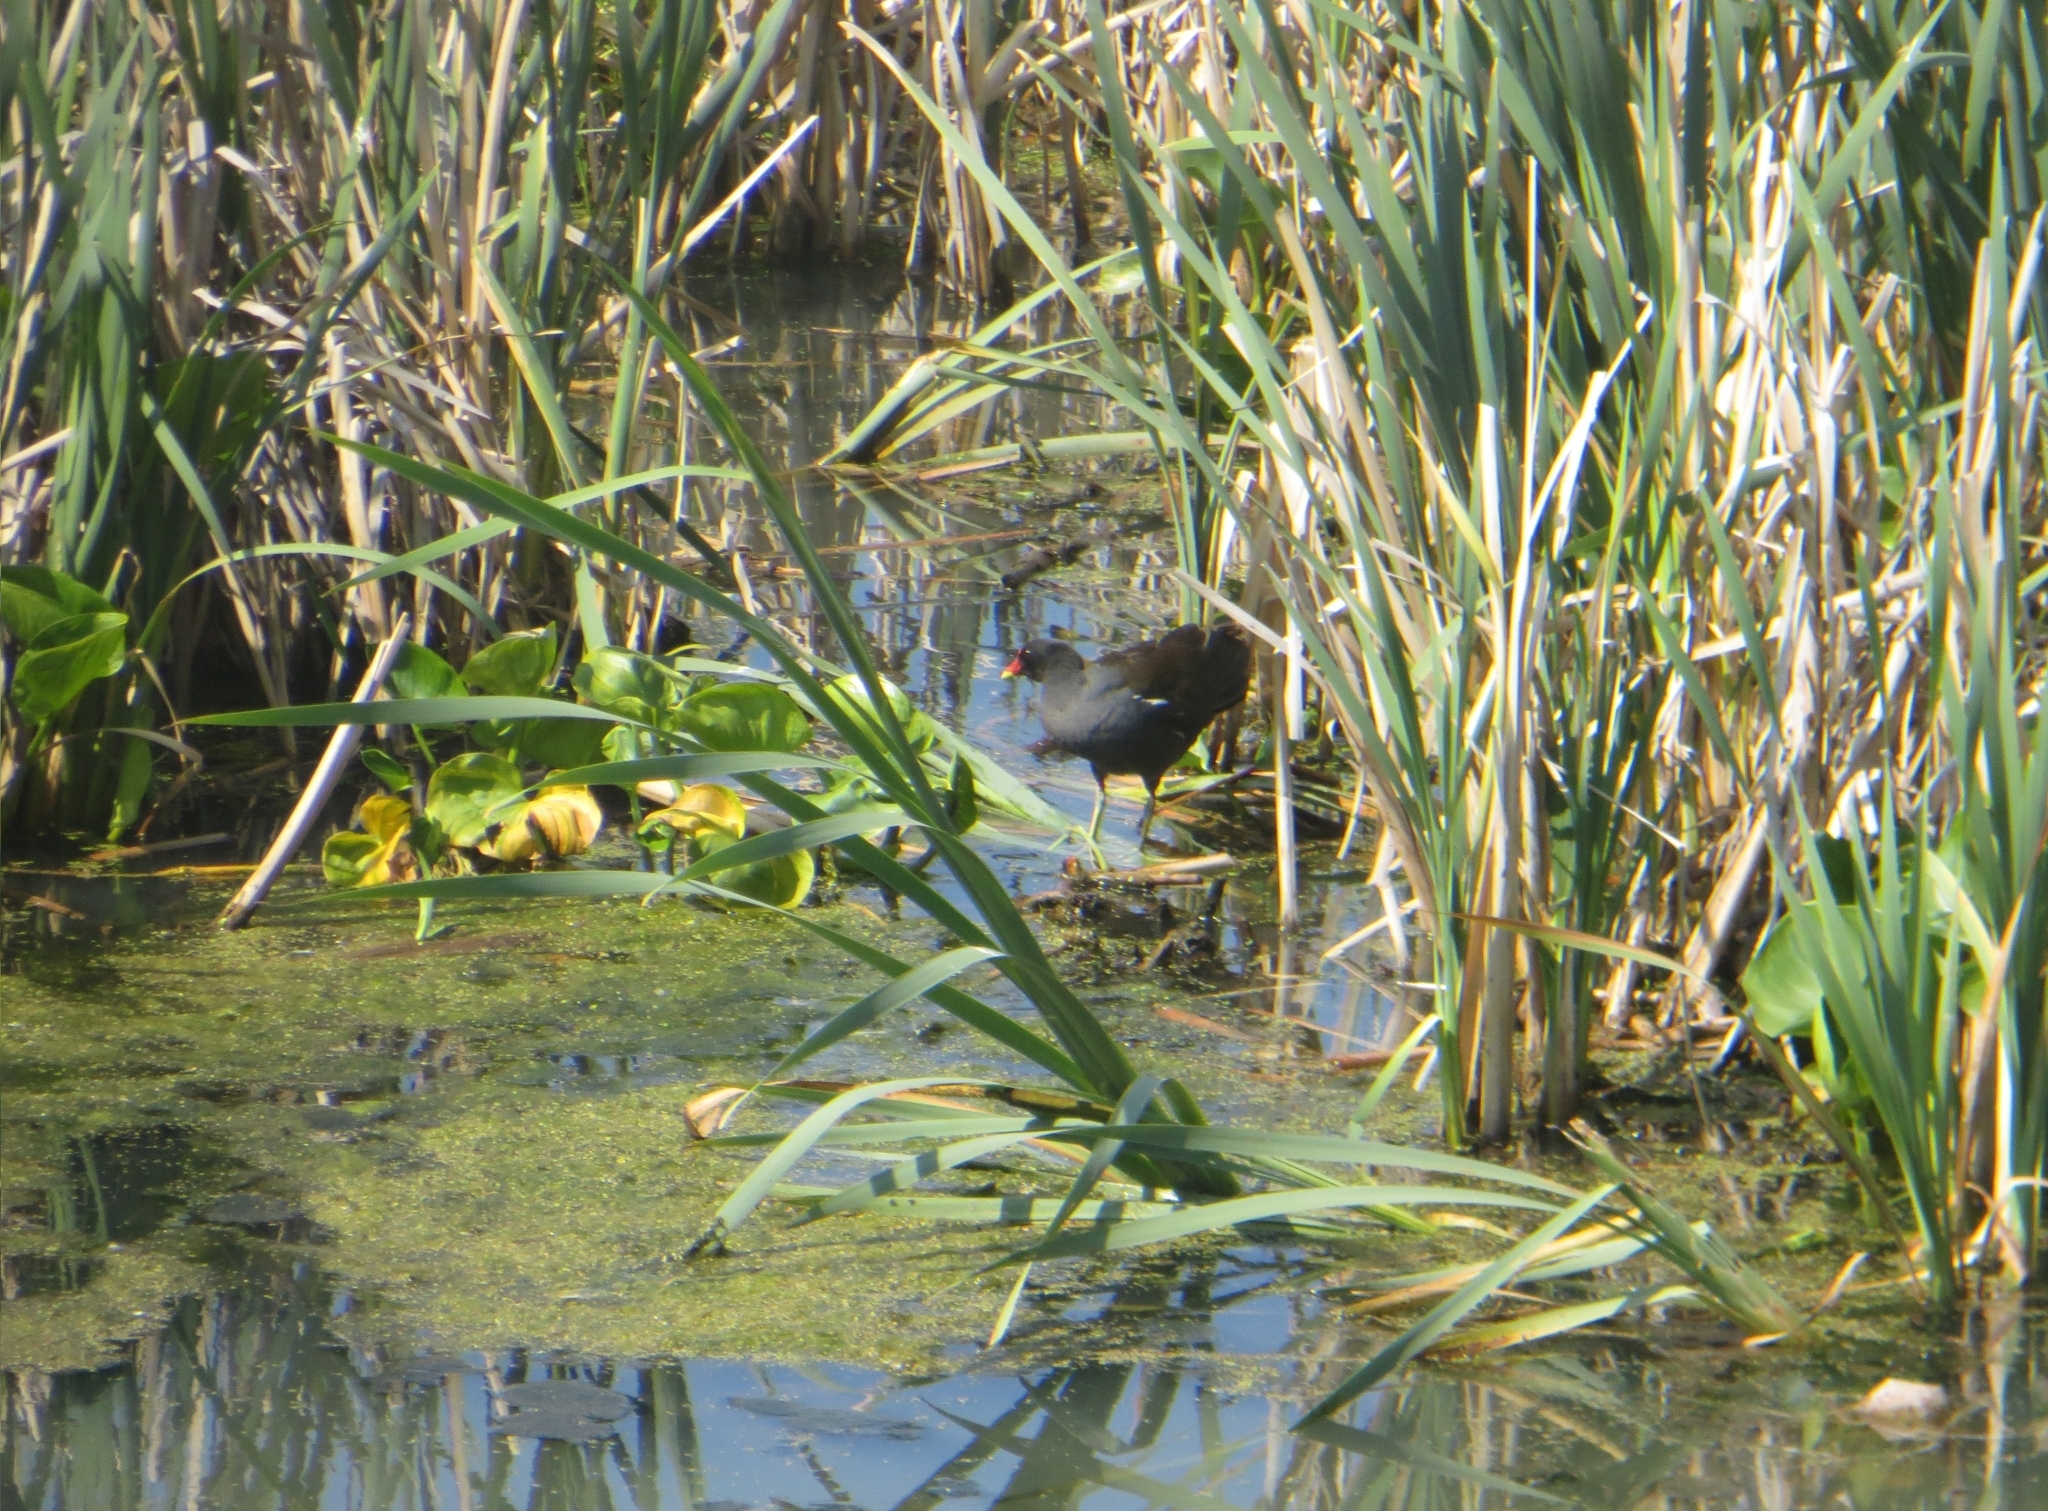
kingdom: Animalia
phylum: Chordata
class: Aves
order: Gruiformes
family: Rallidae
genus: Gallinula
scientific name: Gallinula chloropus
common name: Common moorhen
